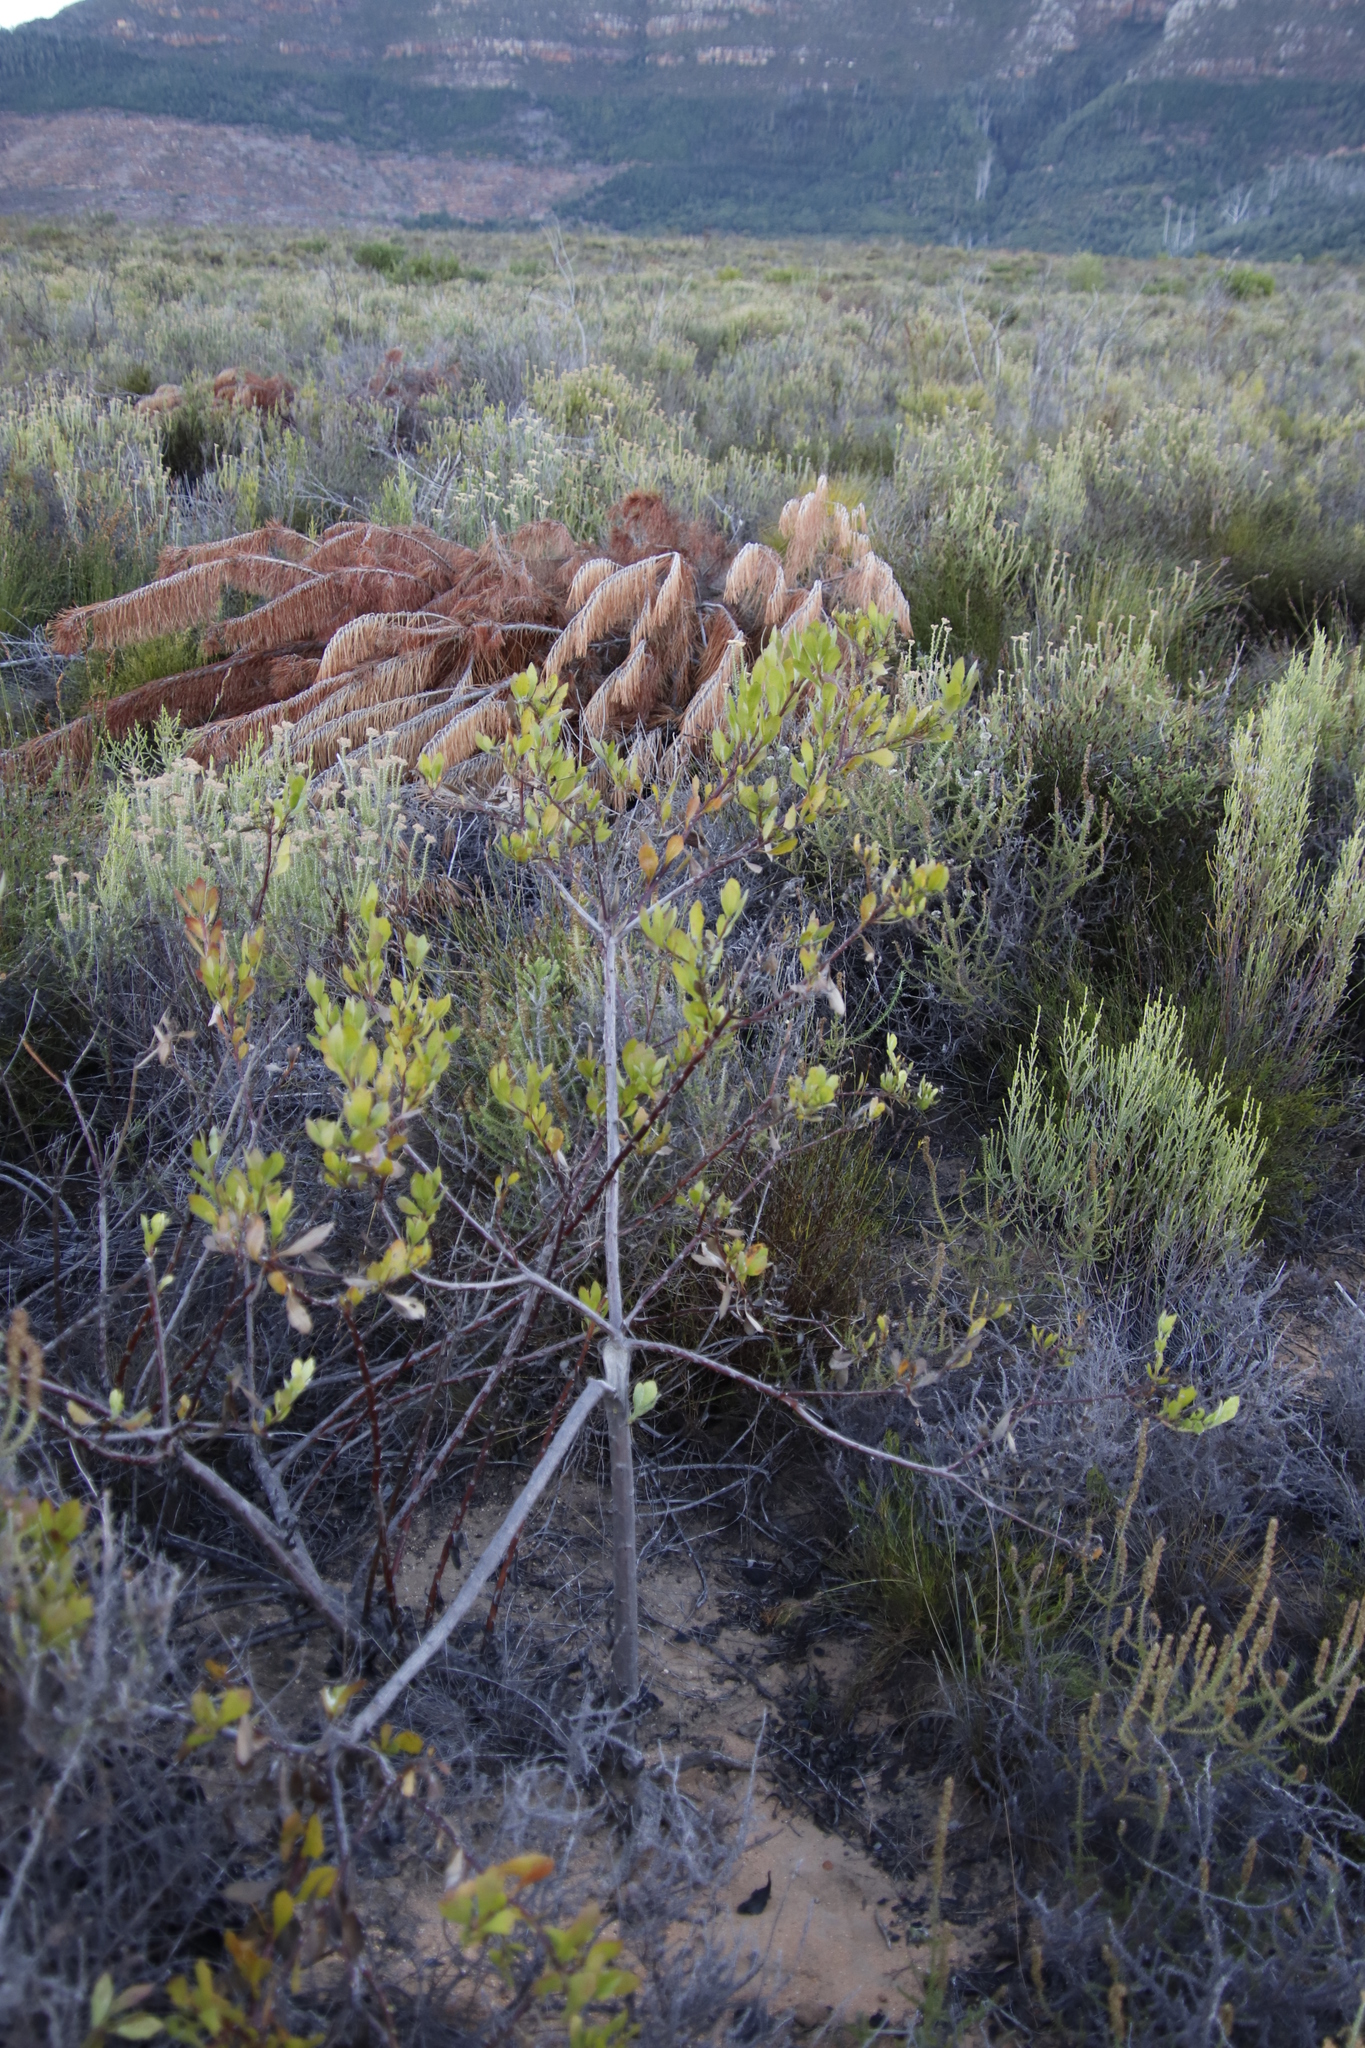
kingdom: Plantae
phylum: Tracheophyta
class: Magnoliopsida
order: Asterales
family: Asteraceae
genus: Osteospermum
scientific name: Osteospermum moniliferum
